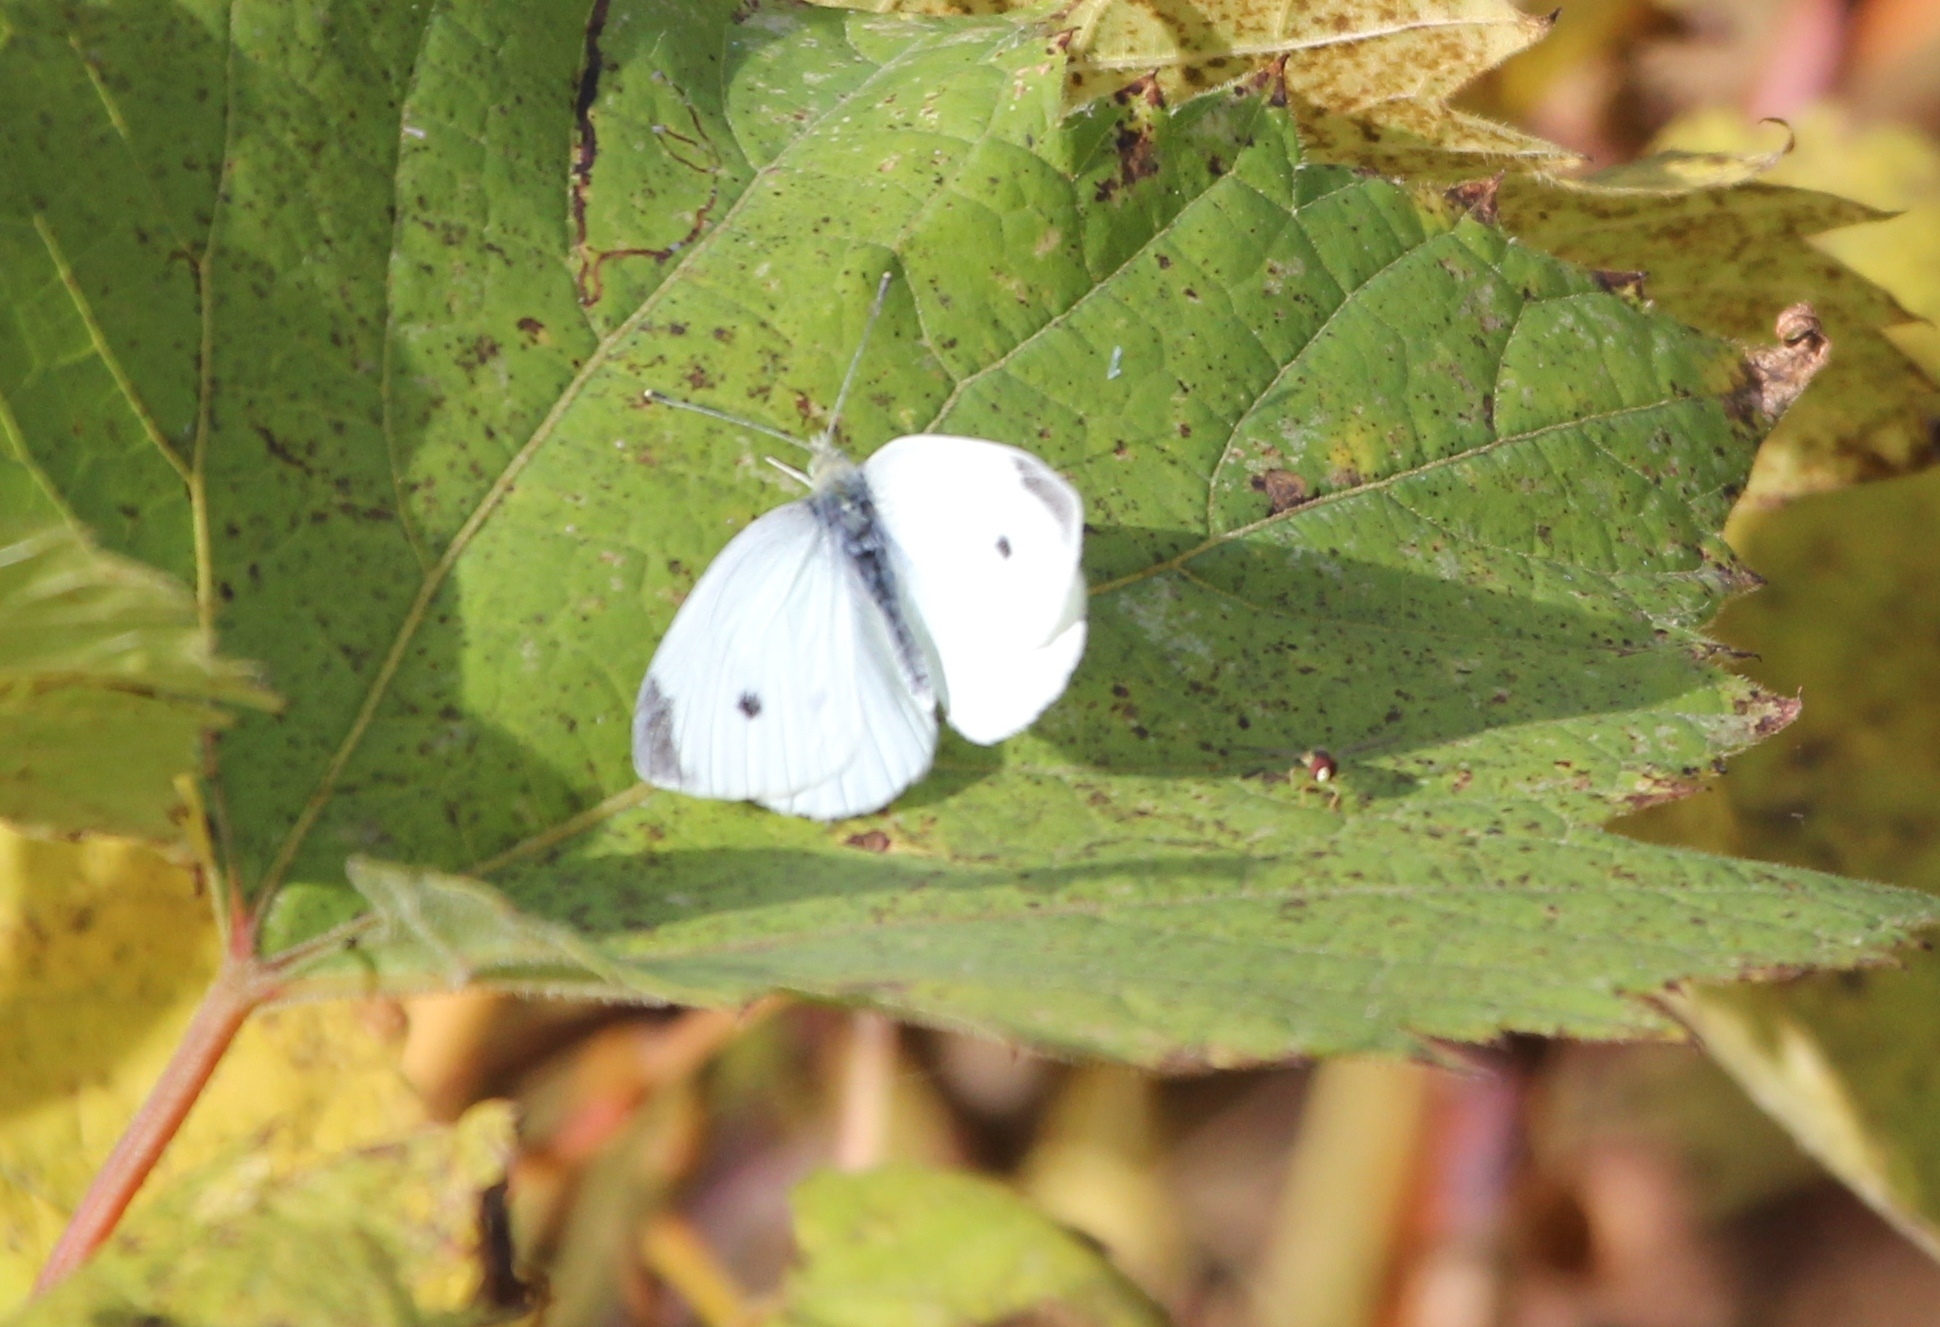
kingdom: Animalia
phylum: Arthropoda
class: Insecta
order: Lepidoptera
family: Pieridae
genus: Pieris
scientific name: Pieris rapae
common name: Small white
